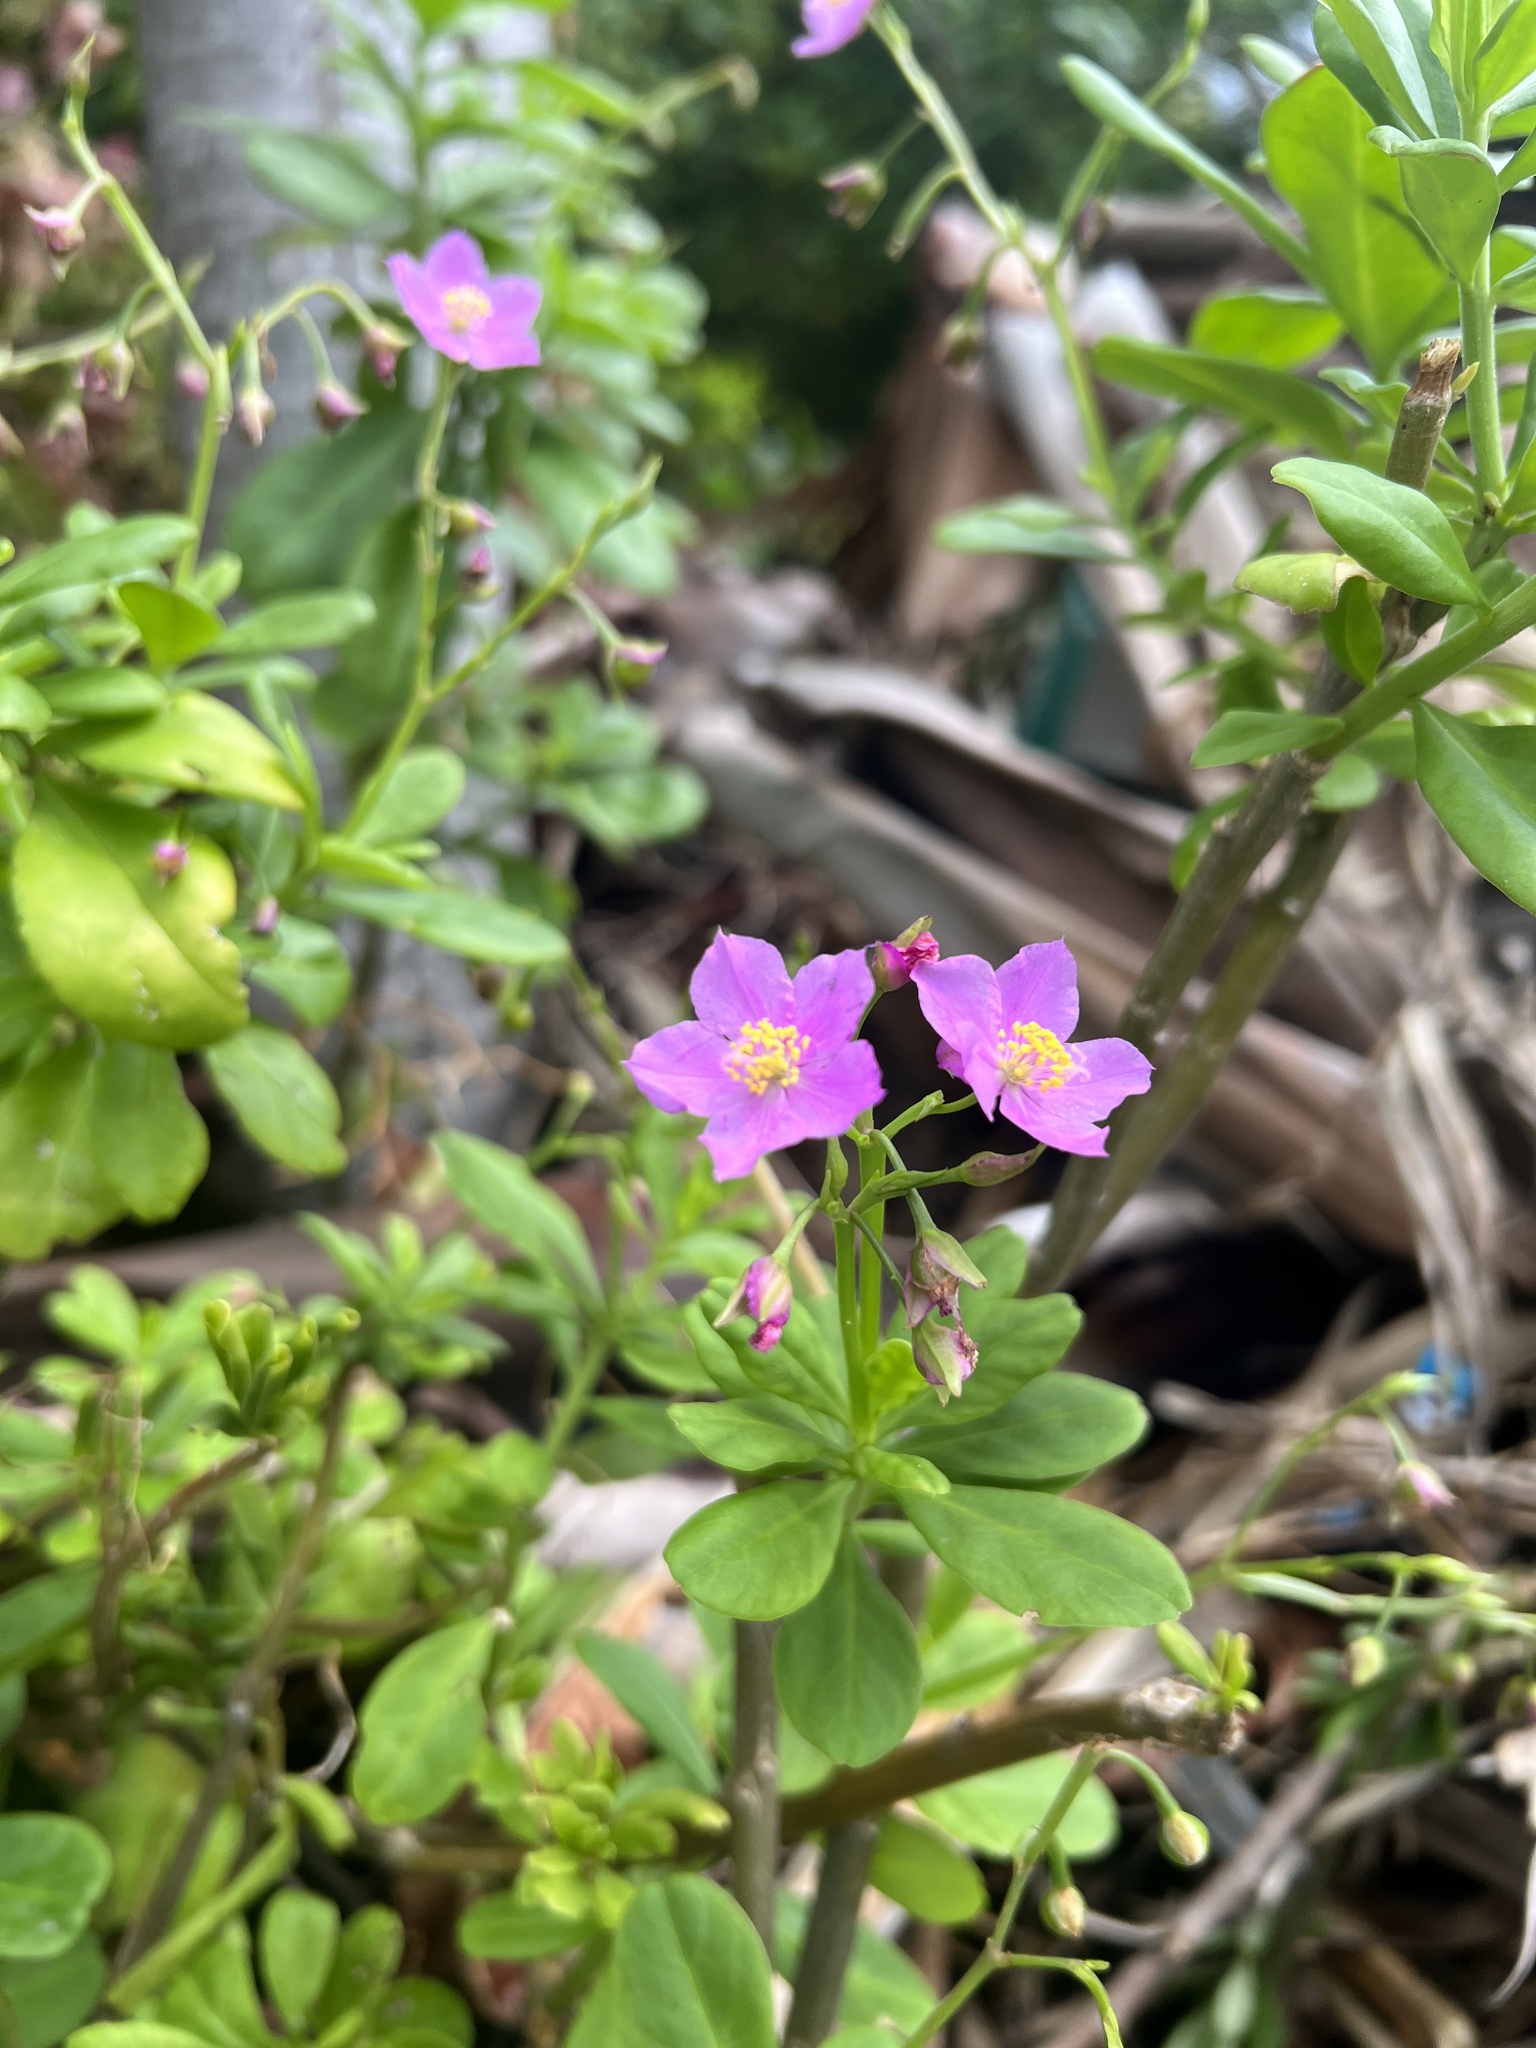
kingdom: Plantae
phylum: Tracheophyta
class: Magnoliopsida
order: Caryophyllales
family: Talinaceae
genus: Talinum
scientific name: Talinum fruticosum
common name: Verdolaga-francesa
